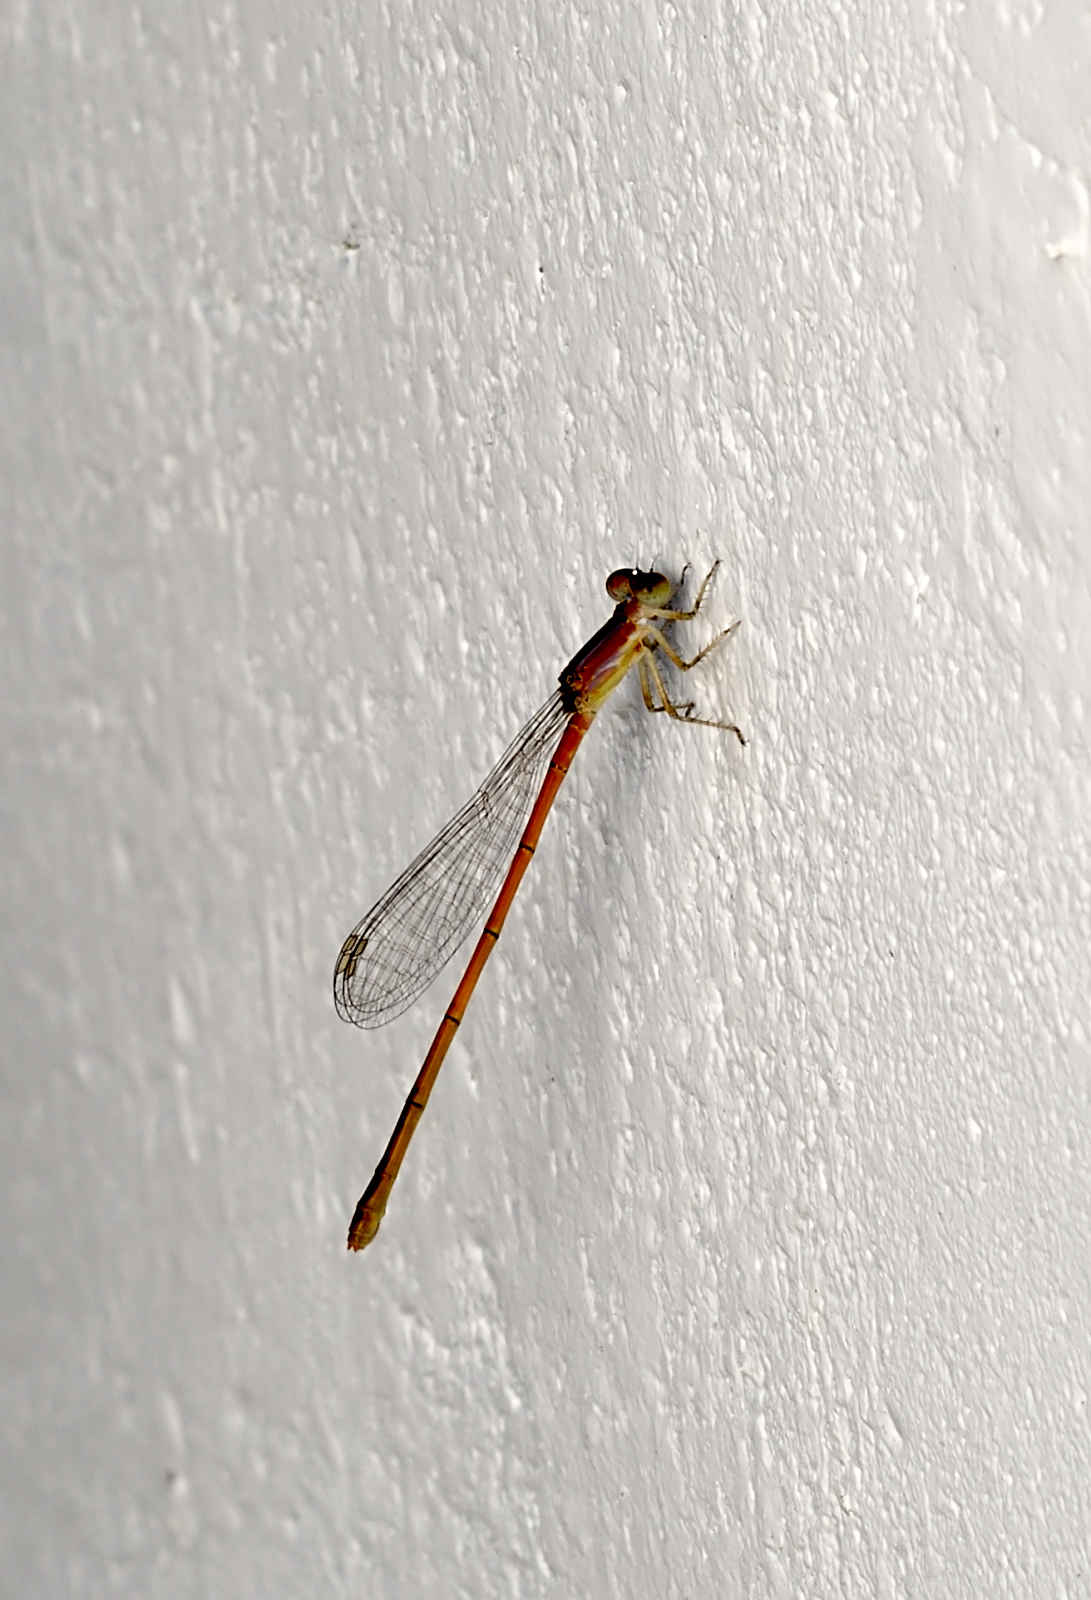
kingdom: Animalia
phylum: Arthropoda
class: Insecta
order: Odonata
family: Coenagrionidae
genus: Agriocnemis
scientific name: Agriocnemis pygmaea
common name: Pygmy wisp
